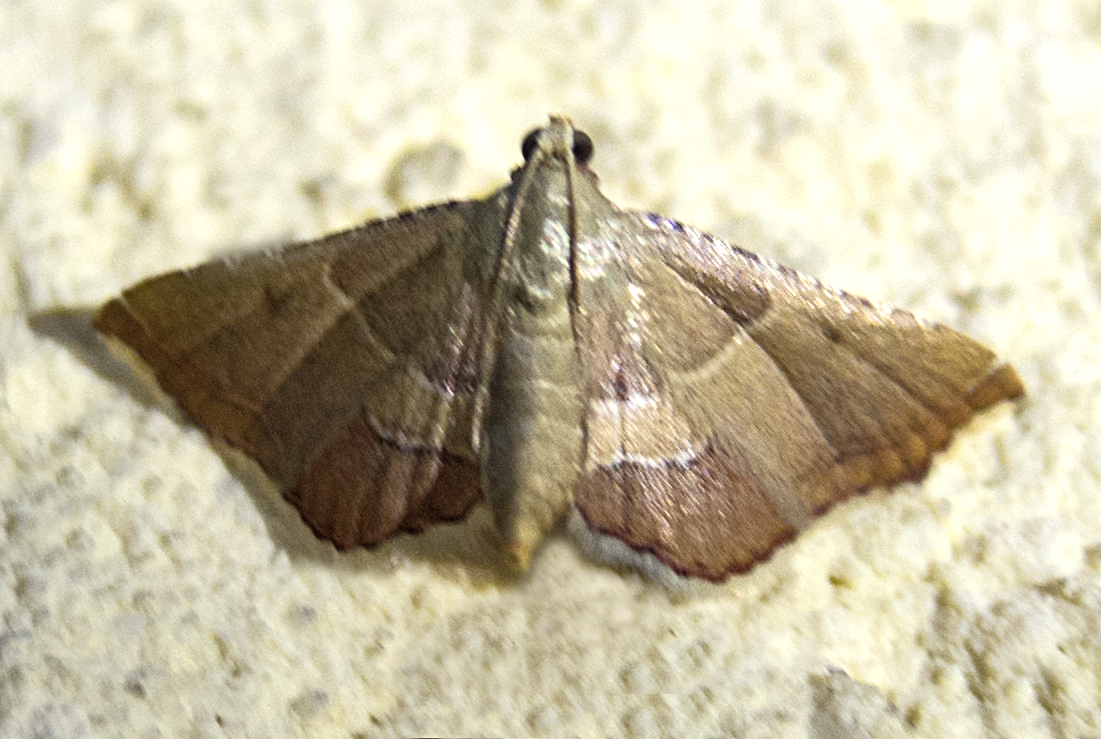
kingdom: Animalia
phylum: Arthropoda
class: Insecta
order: Lepidoptera
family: Pyralidae
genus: Endotricha
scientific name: Endotricha flammealis
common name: Rosy tabby
